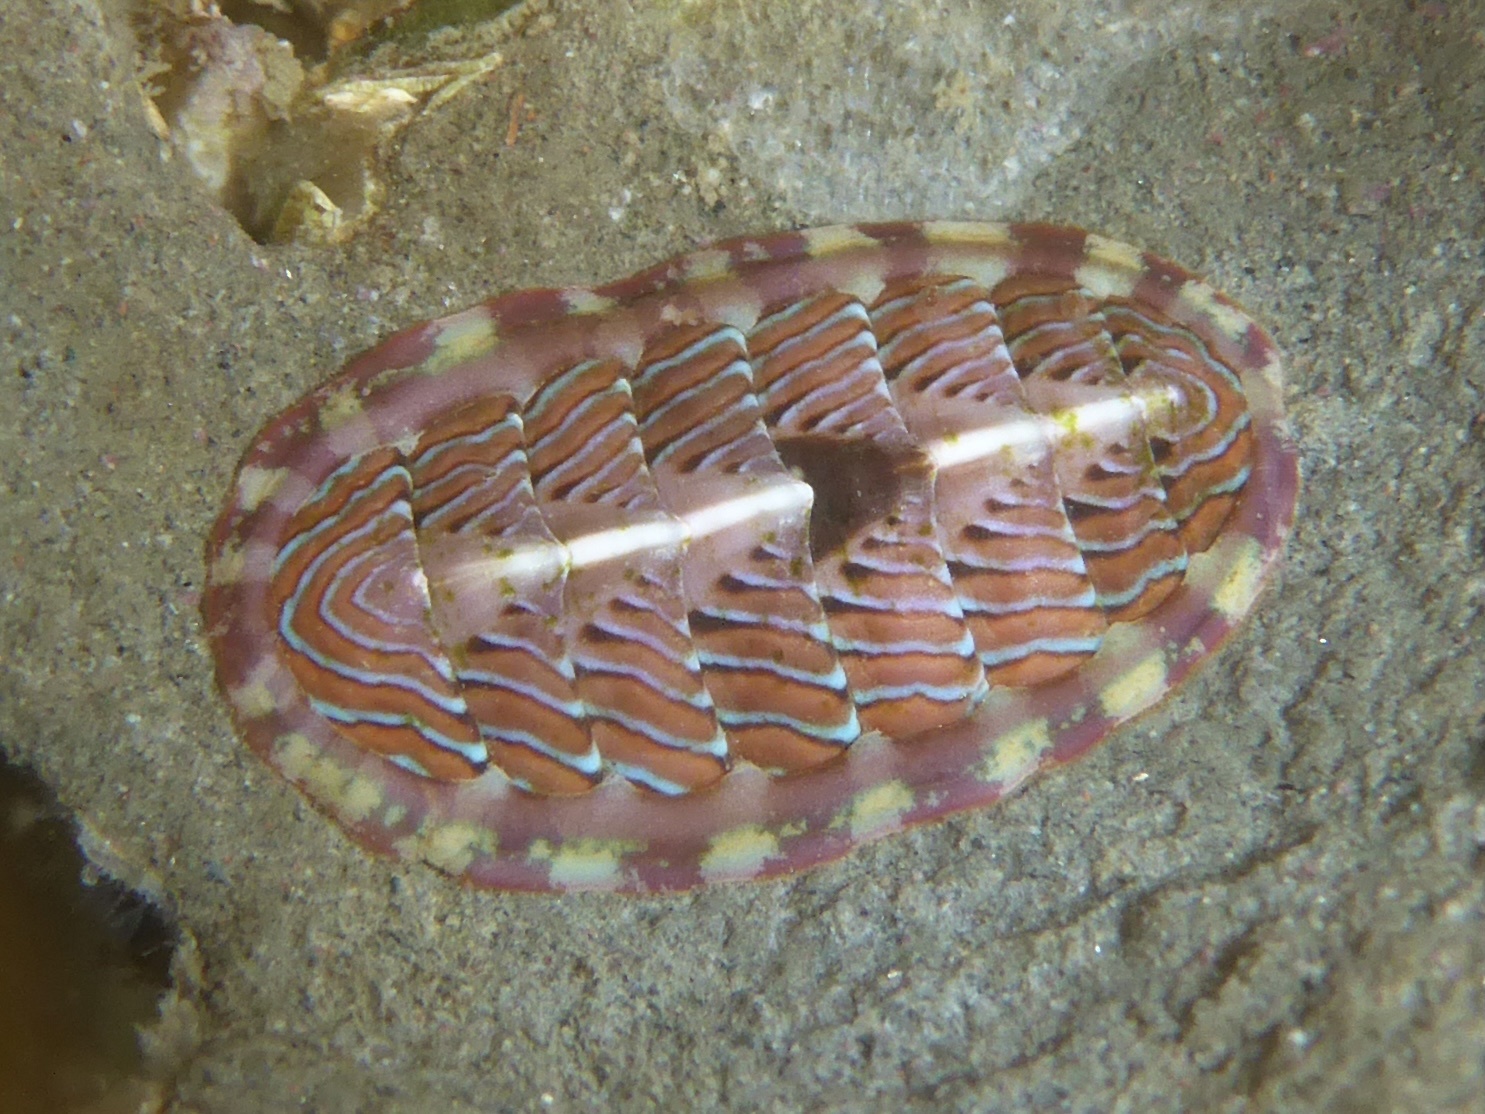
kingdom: Animalia
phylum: Mollusca
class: Polyplacophora
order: Chitonida
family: Tonicellidae
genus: Tonicella
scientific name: Tonicella lineata
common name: Lined chiton
